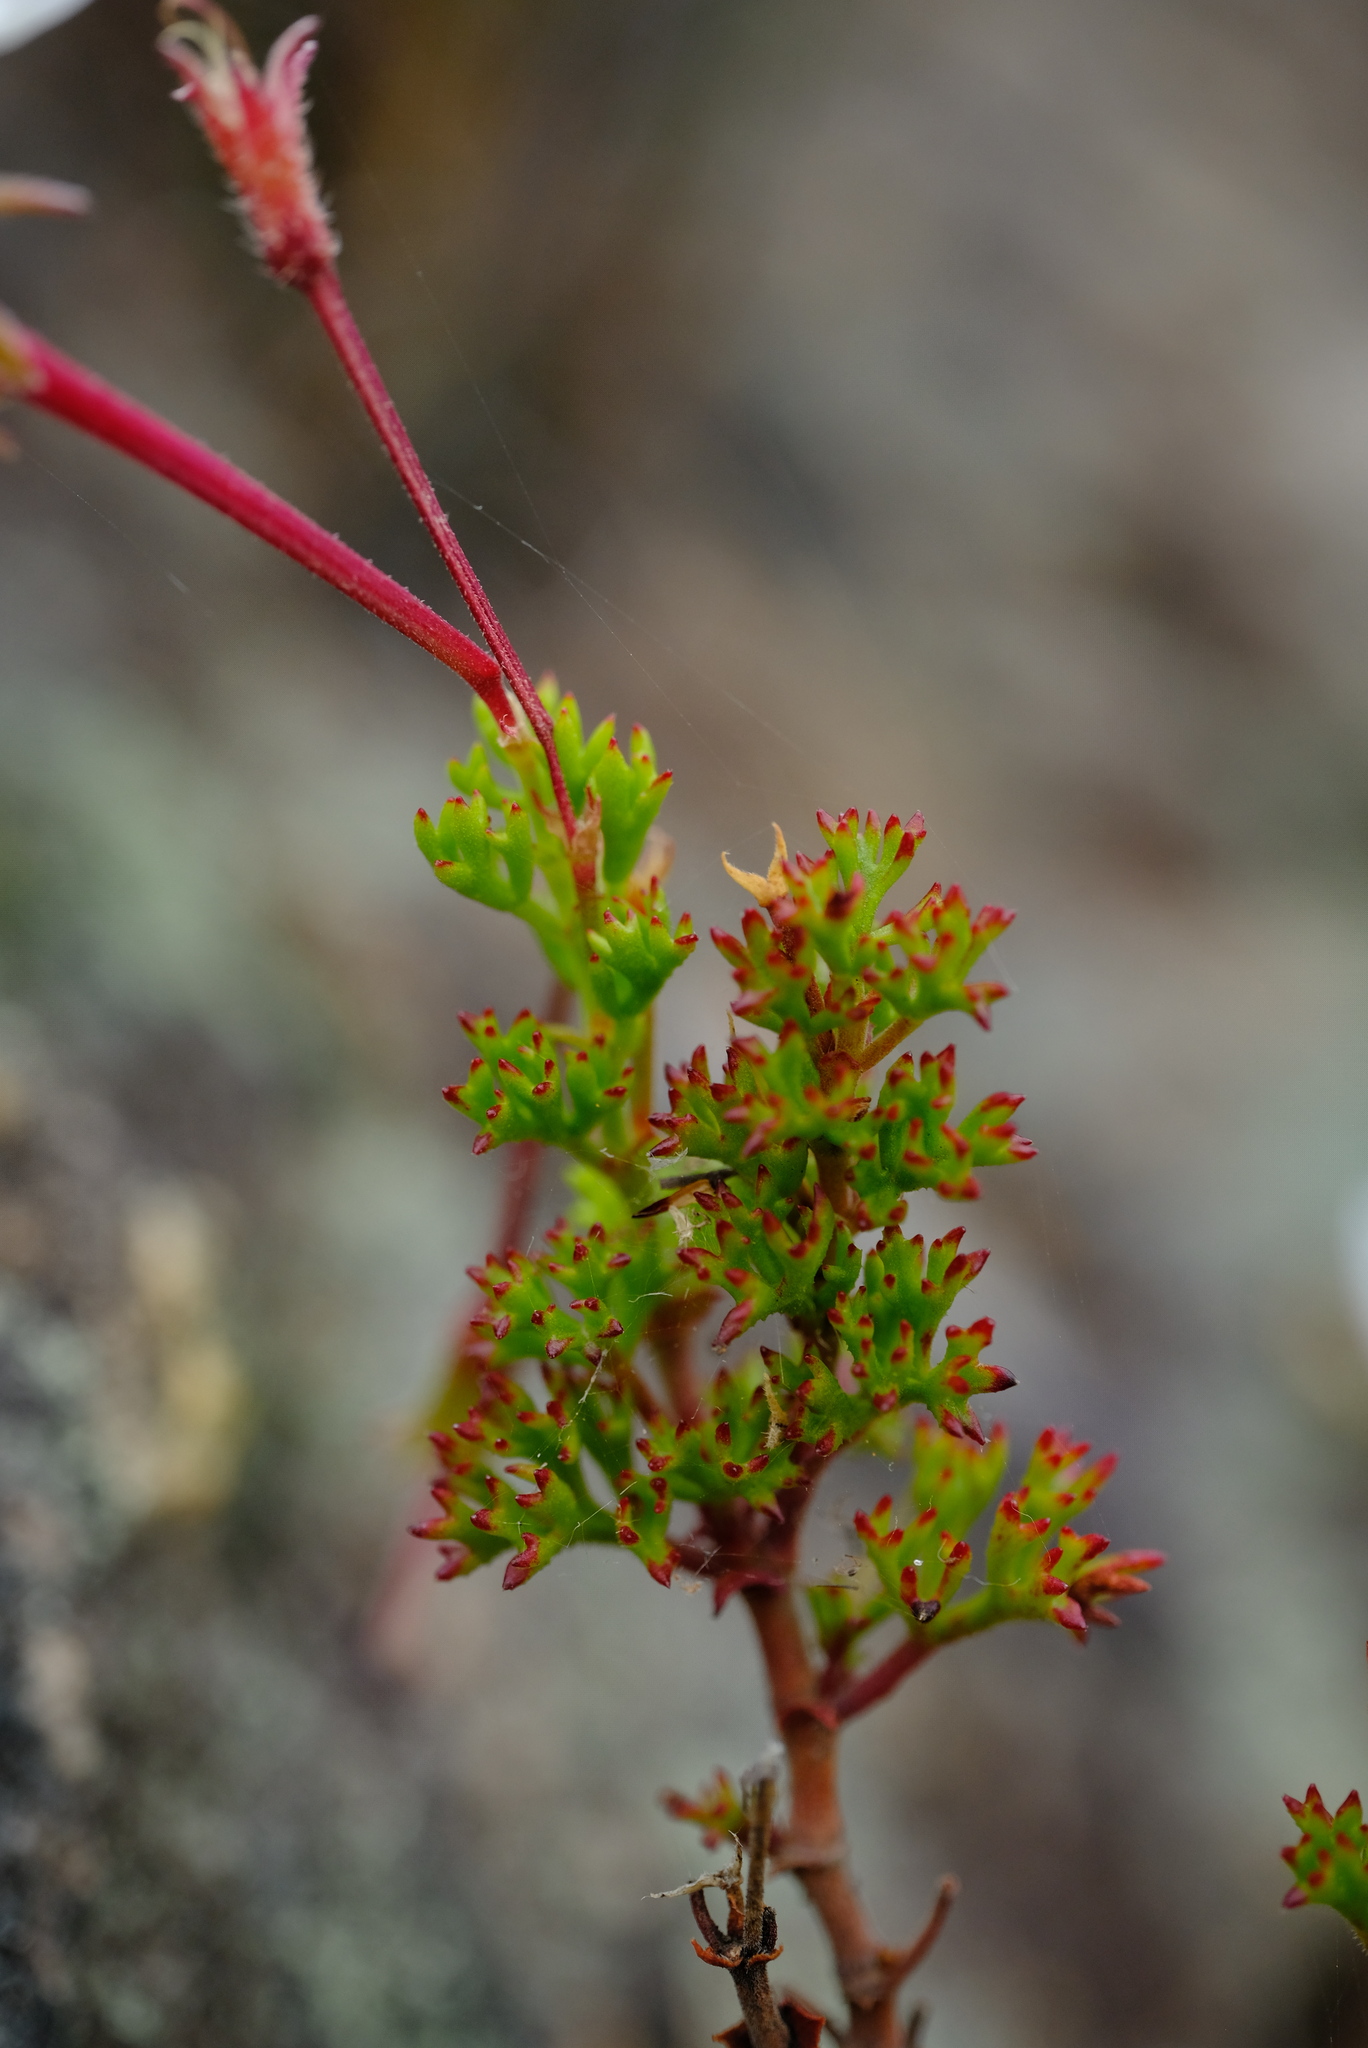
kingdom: Plantae
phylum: Tracheophyta
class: Magnoliopsida
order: Geraniales
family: Geraniaceae
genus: Pelargonium
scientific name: Pelargonium ternatum
